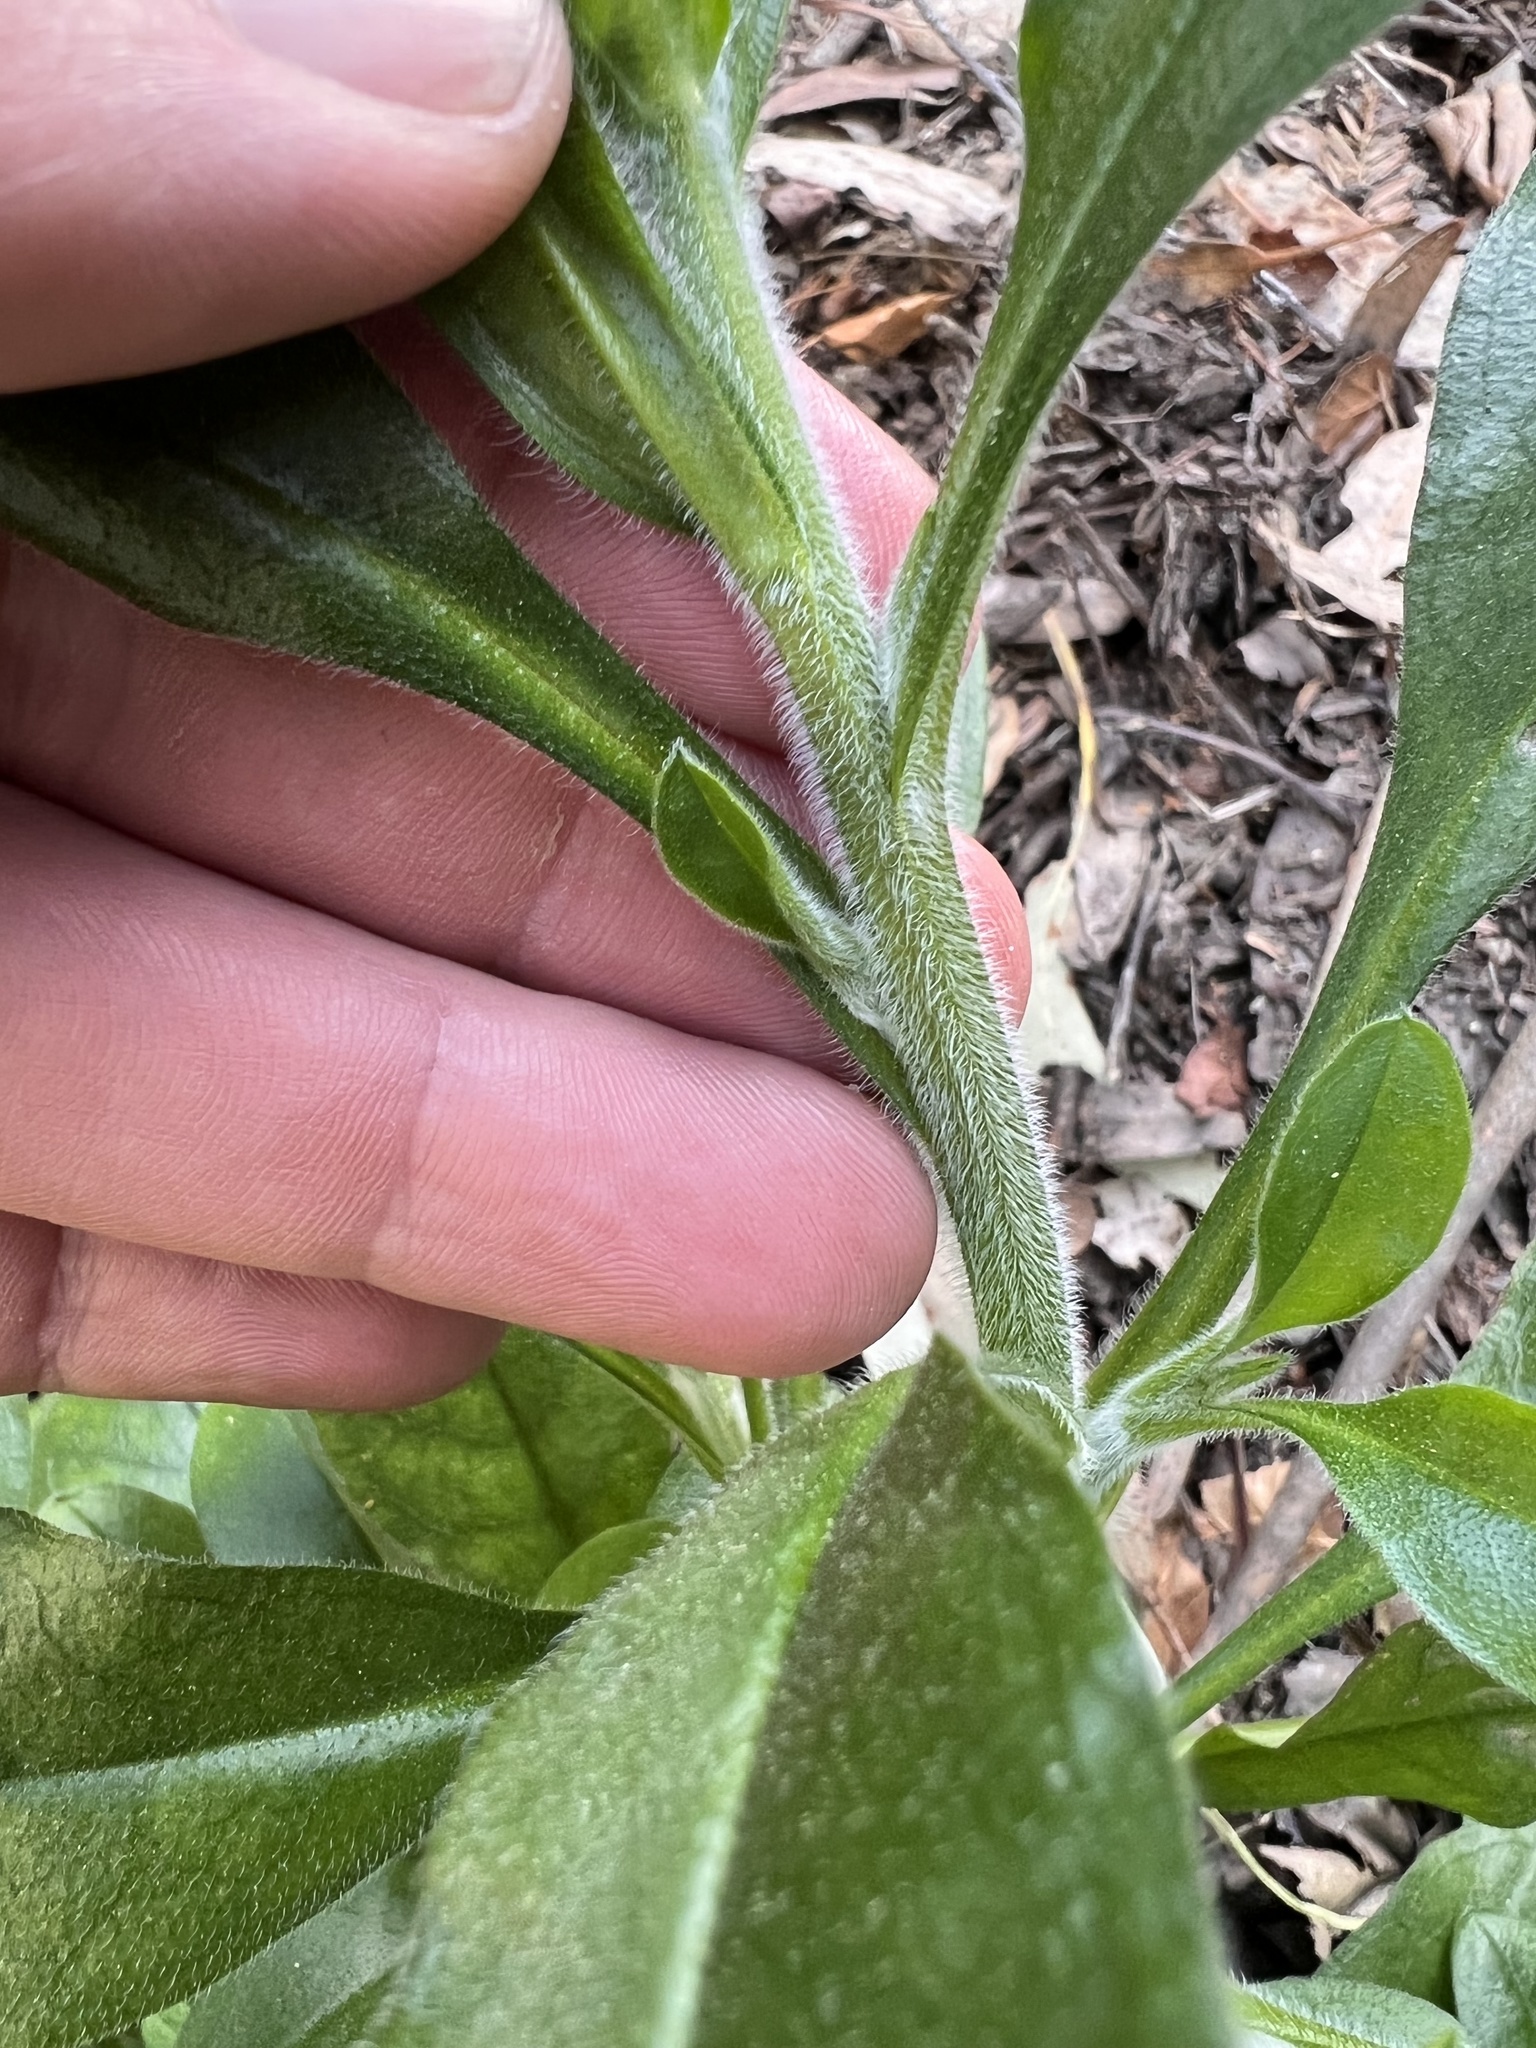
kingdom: Plantae
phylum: Tracheophyta
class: Magnoliopsida
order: Boraginales
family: Boraginaceae
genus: Myosotis
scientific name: Myosotis latifolia
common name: Broadleaf forget-me-not
